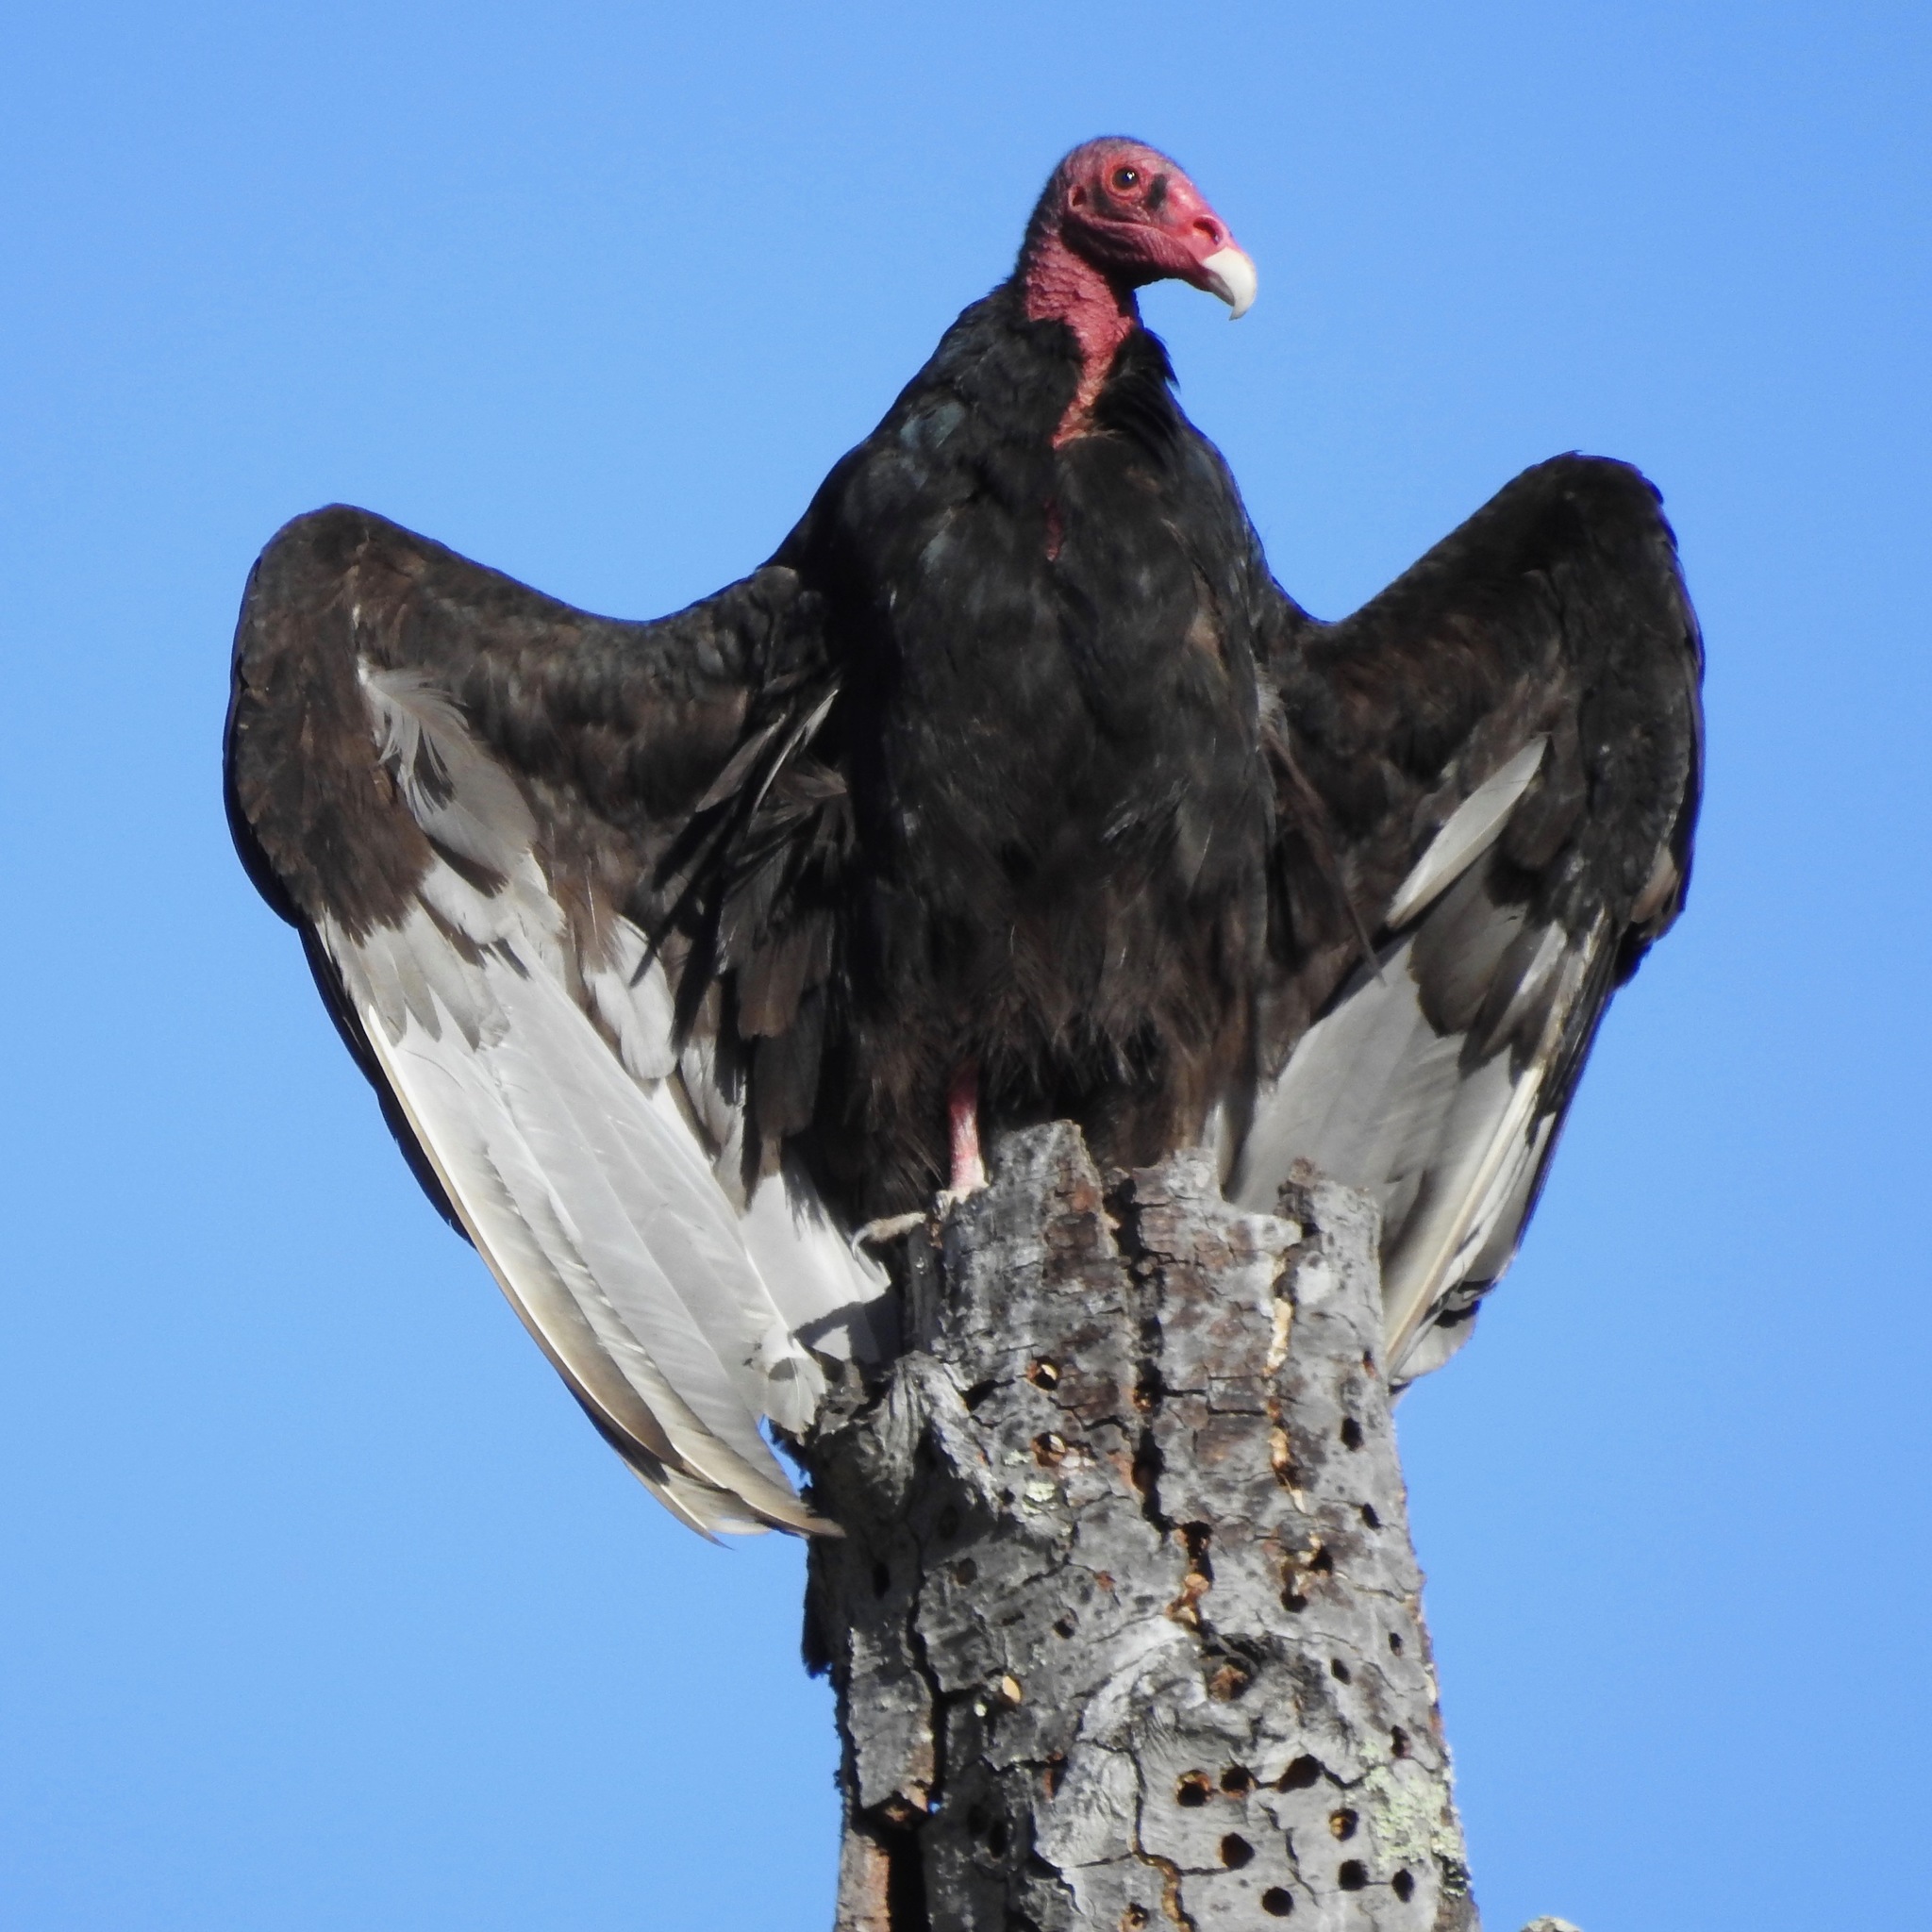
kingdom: Animalia
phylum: Chordata
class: Aves
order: Accipitriformes
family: Cathartidae
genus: Cathartes
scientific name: Cathartes aura
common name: Turkey vulture
